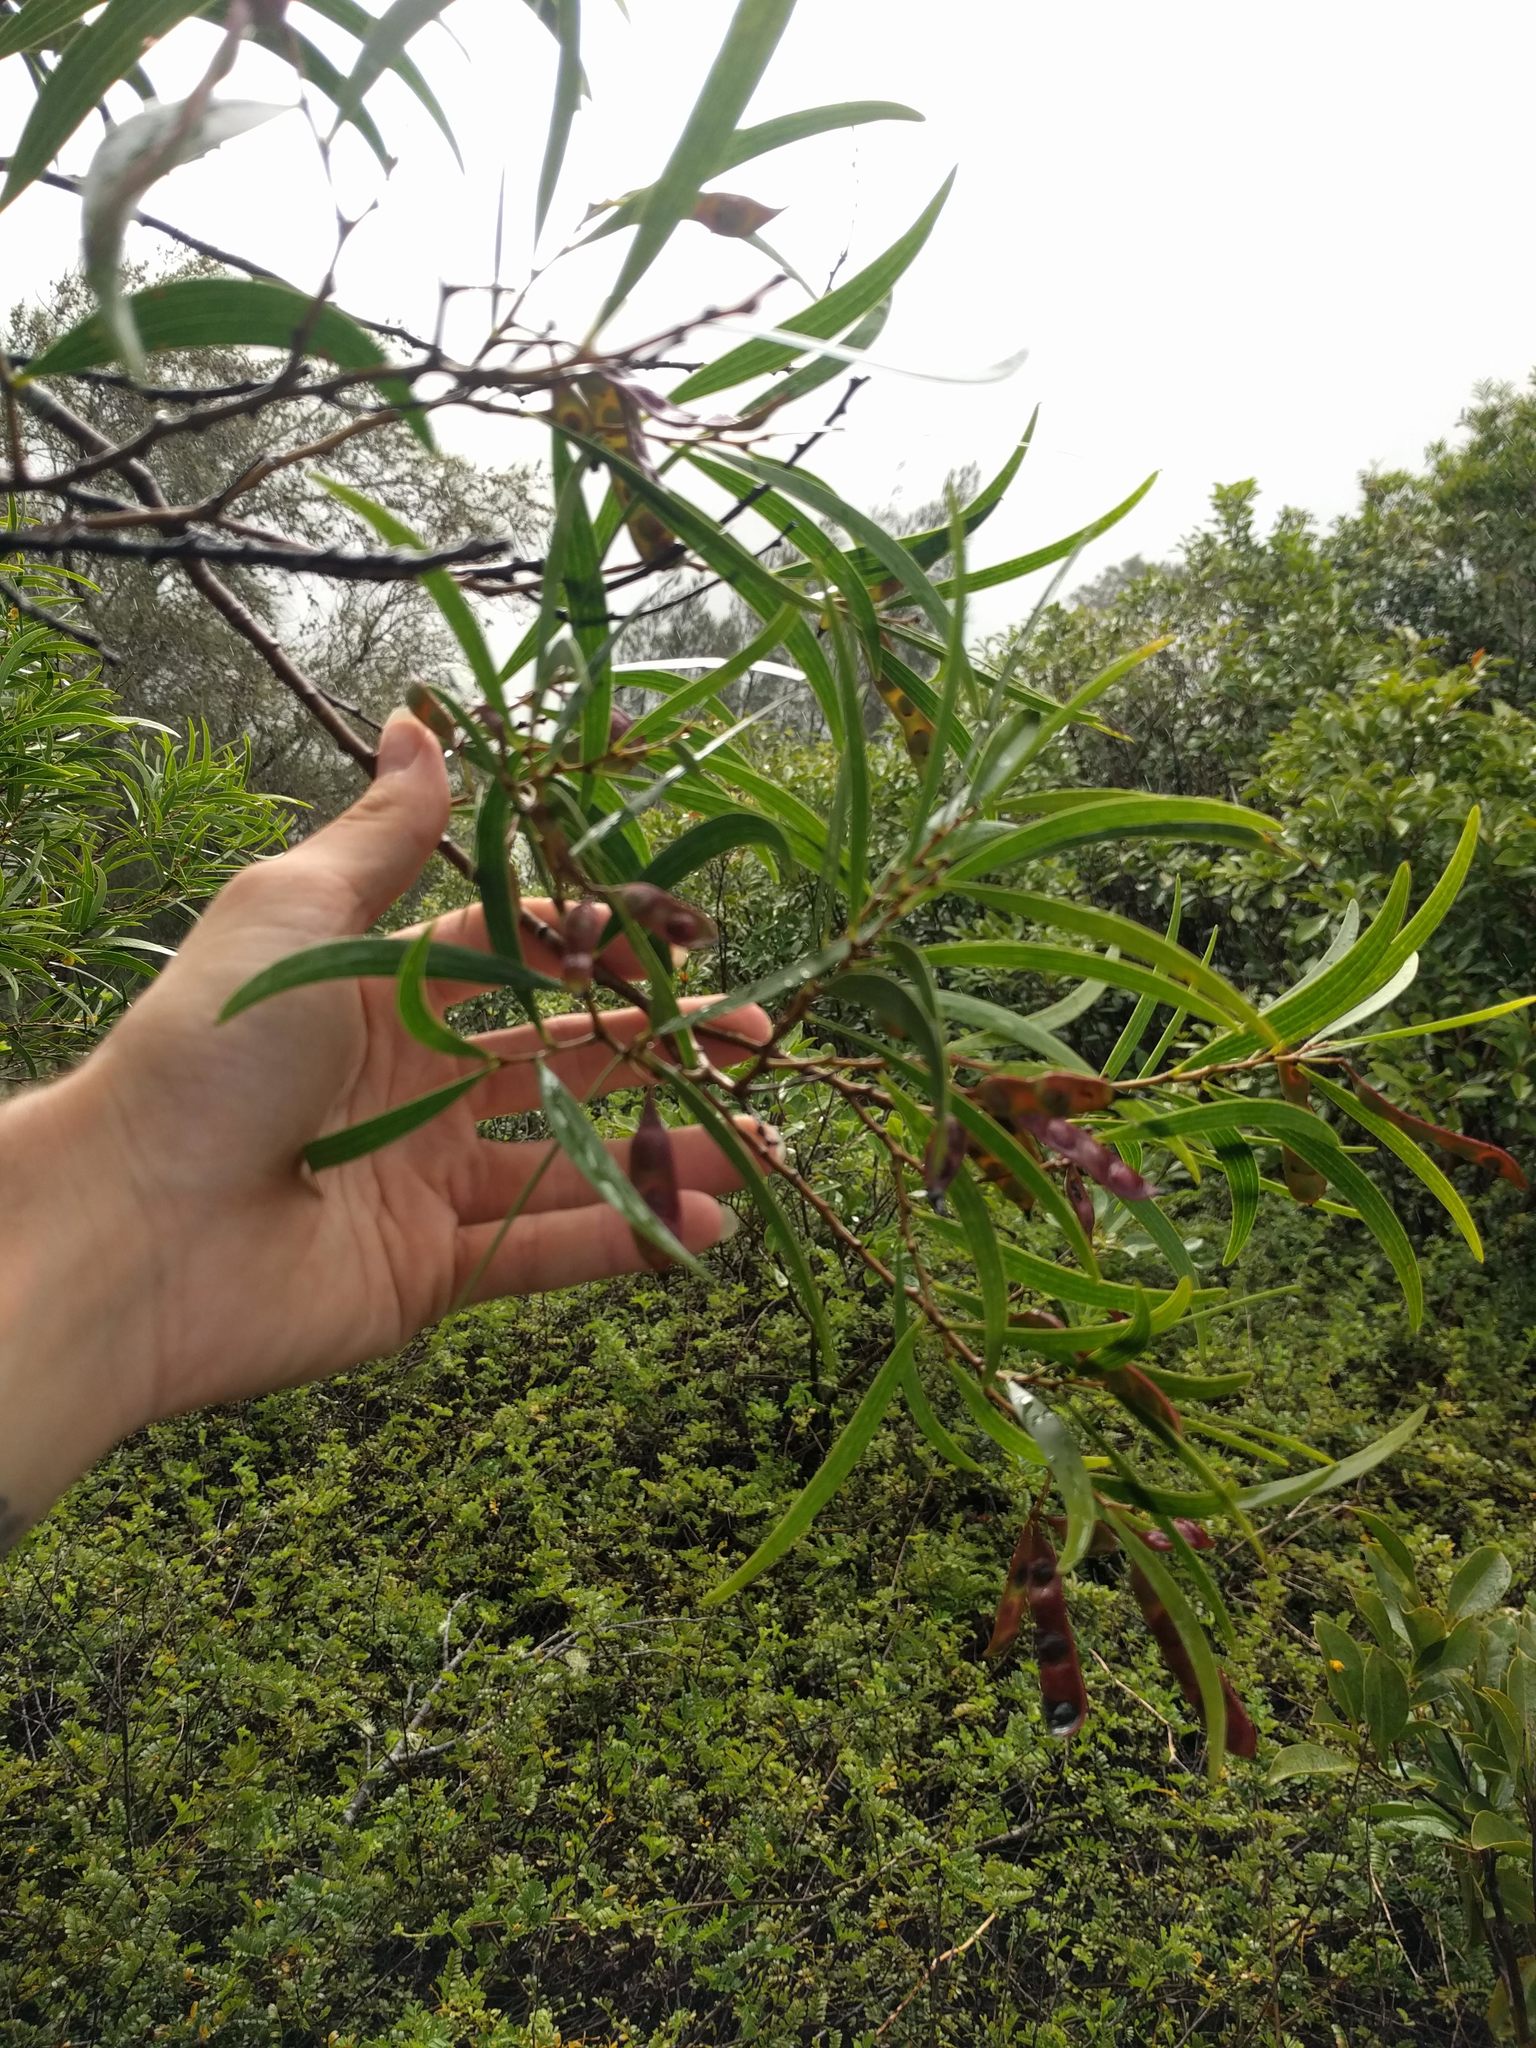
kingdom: Plantae
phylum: Tracheophyta
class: Magnoliopsida
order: Fabales
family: Fabaceae
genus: Acacia
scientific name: Acacia confusa
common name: Formosan koa
